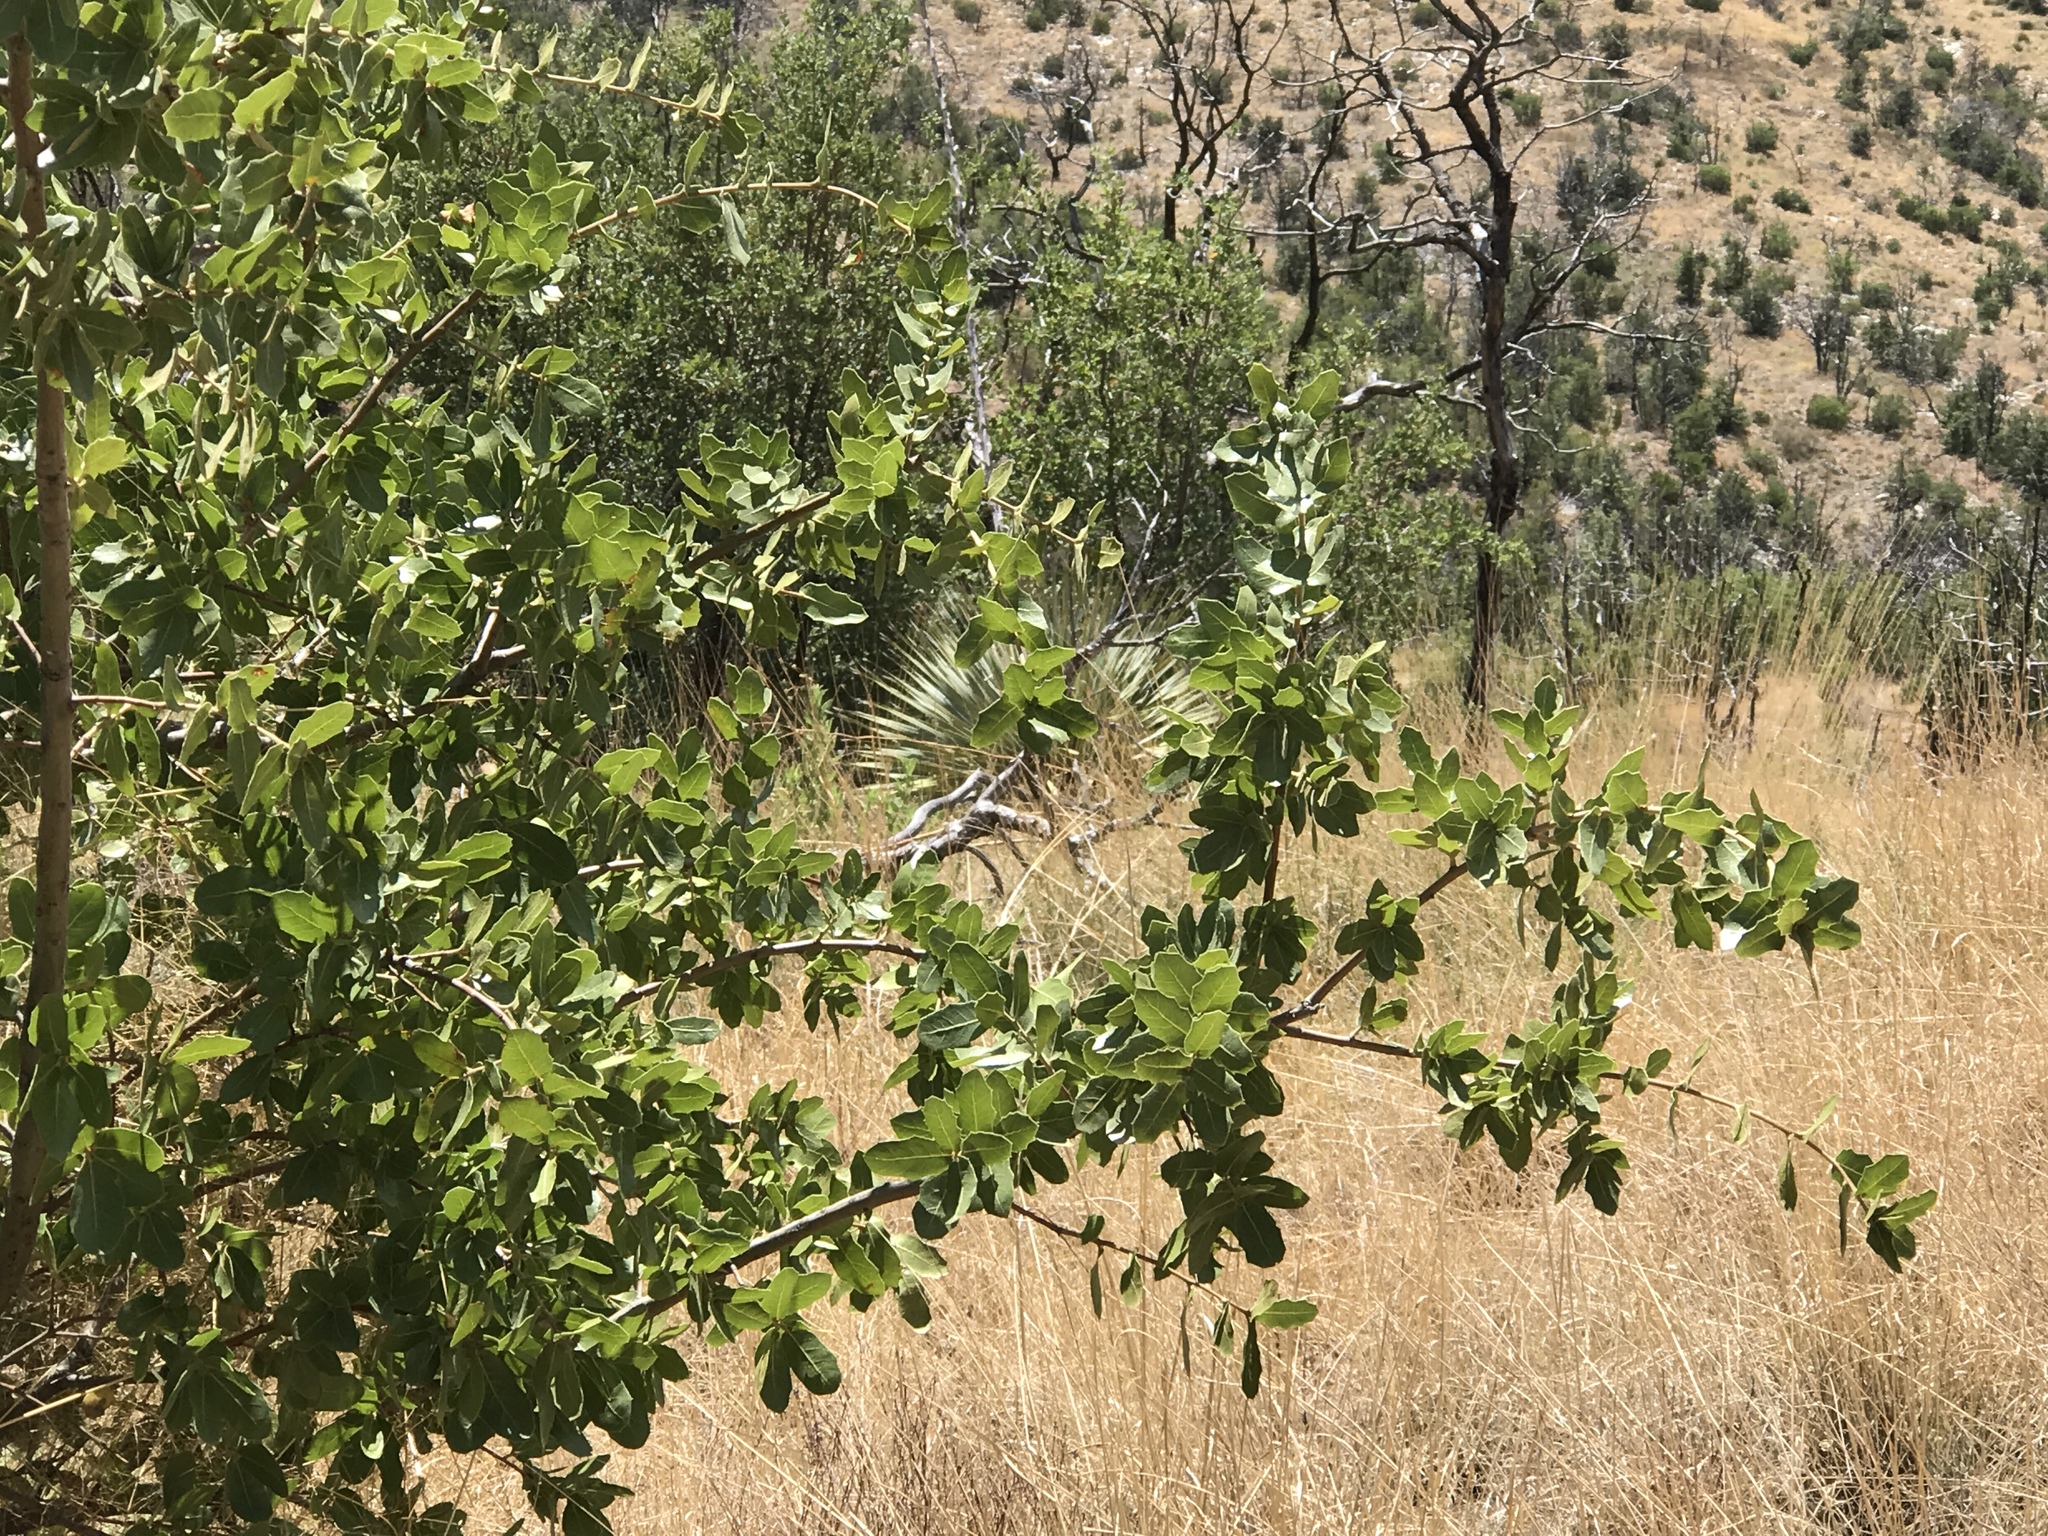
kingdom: Plantae
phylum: Tracheophyta
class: Magnoliopsida
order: Fagales
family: Fagaceae
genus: Quercus
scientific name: Quercus emoryi
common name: Emory oak
